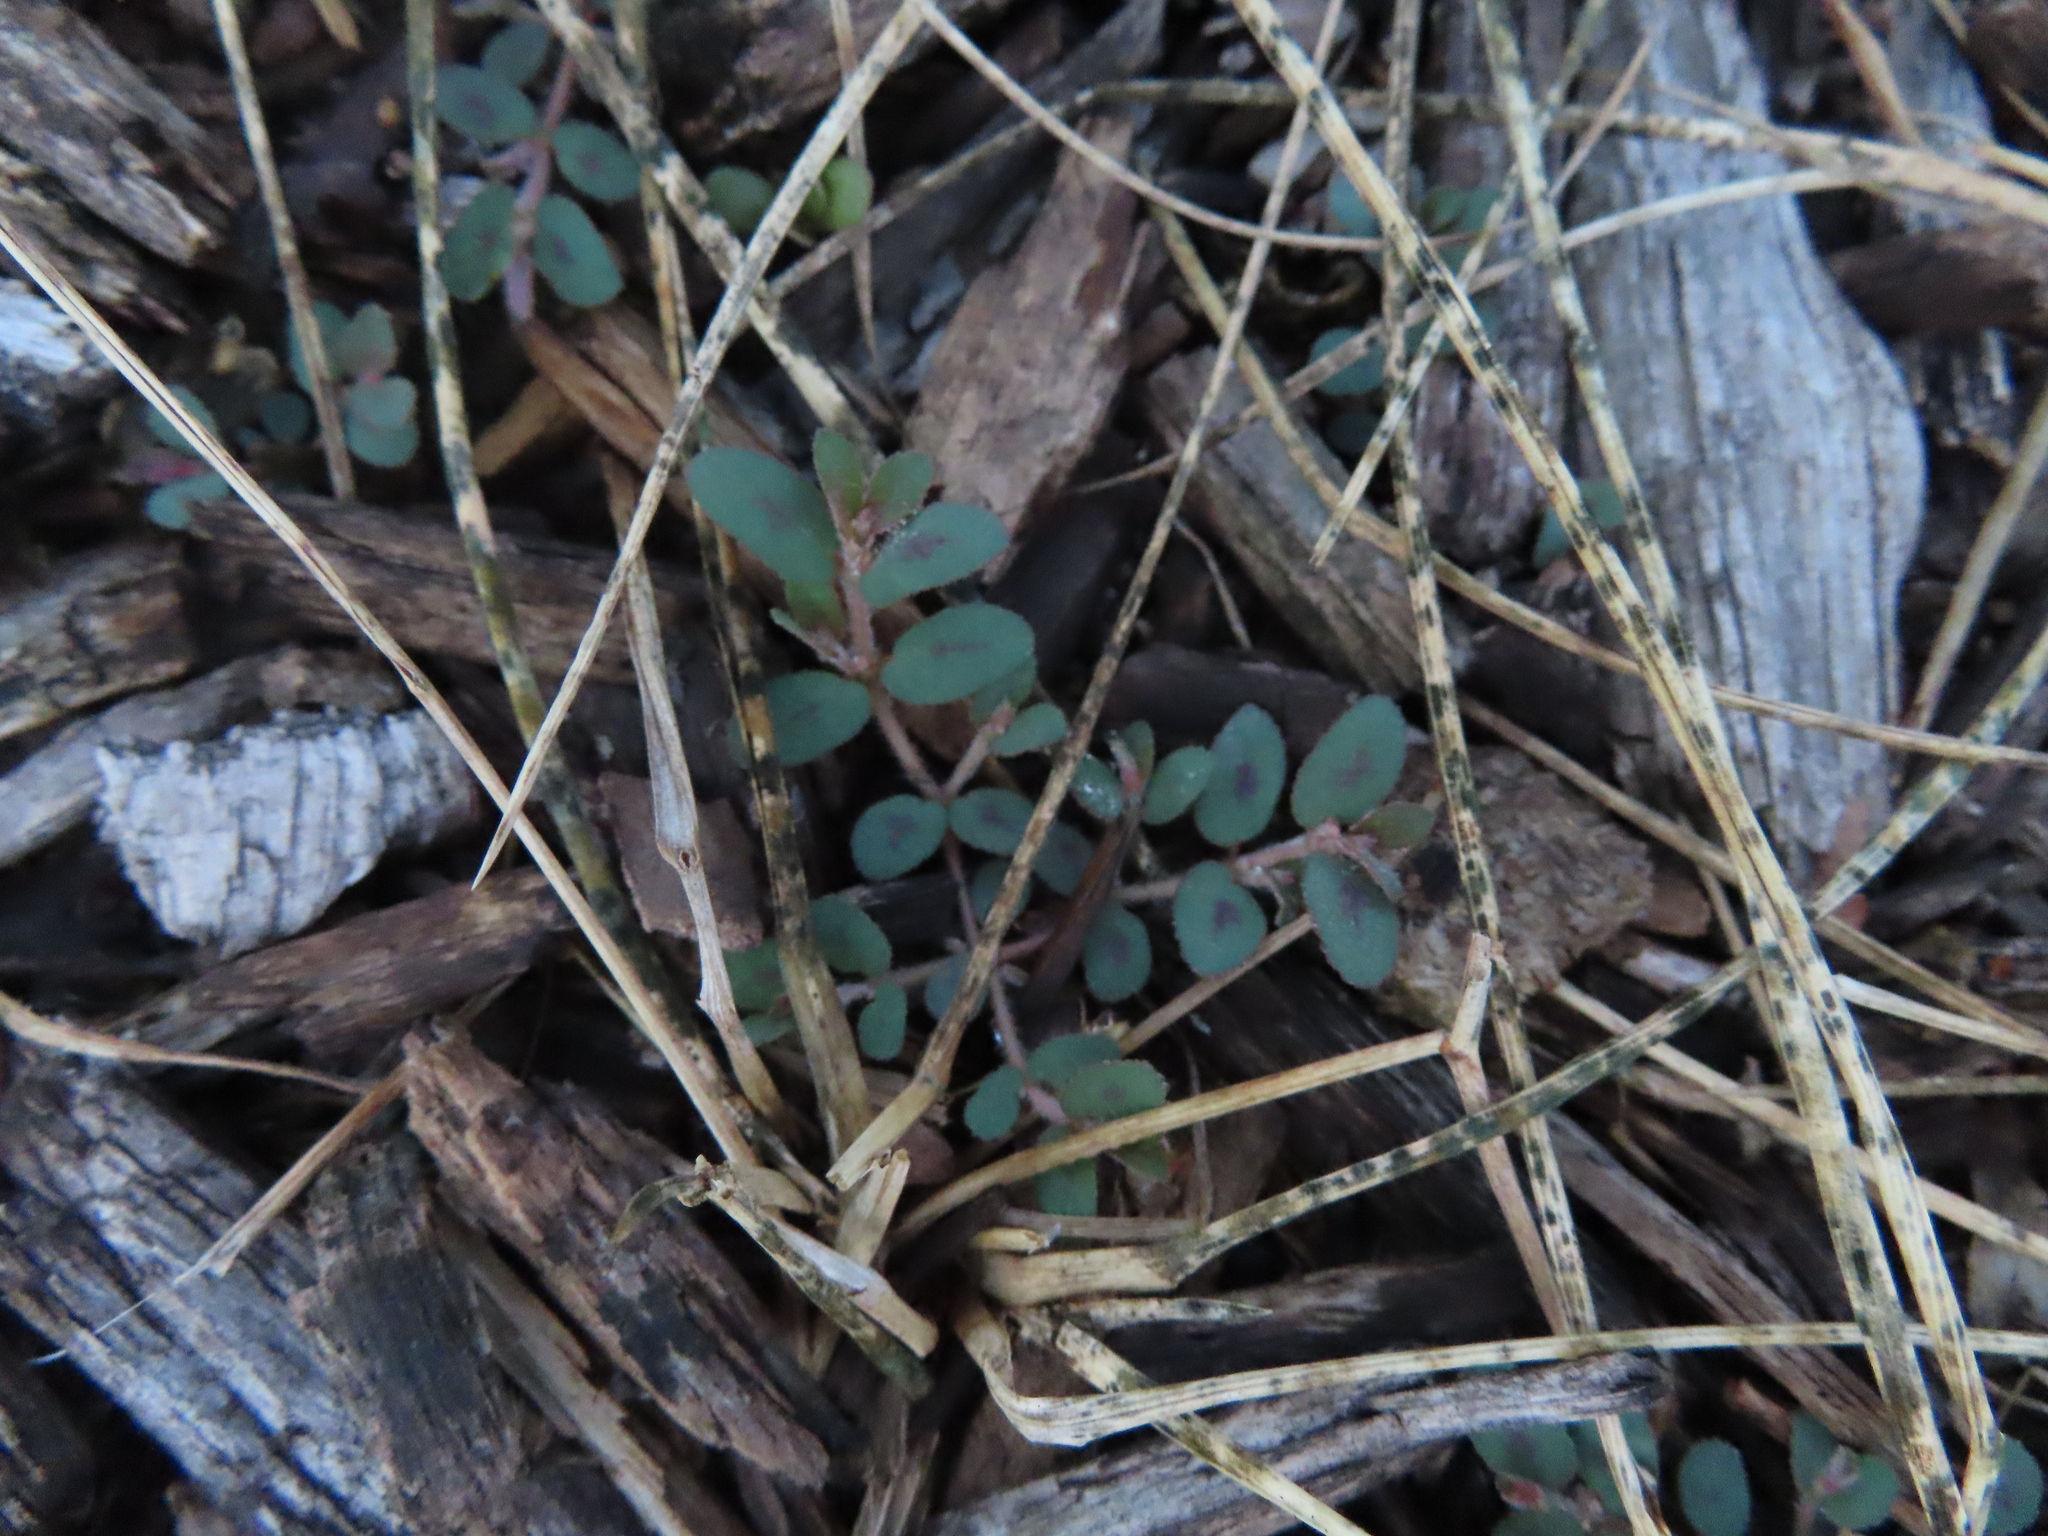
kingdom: Plantae
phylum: Tracheophyta
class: Magnoliopsida
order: Malpighiales
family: Euphorbiaceae
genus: Euphorbia
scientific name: Euphorbia maculata
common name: Spotted spurge
